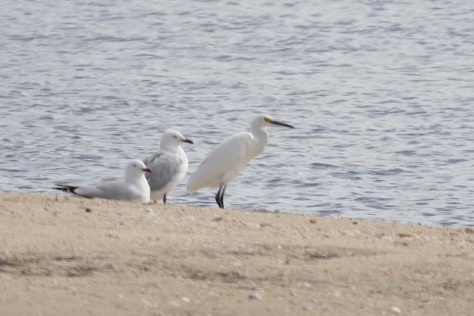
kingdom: Animalia
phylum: Chordata
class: Aves
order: Pelecaniformes
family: Ardeidae
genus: Egretta
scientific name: Egretta garzetta
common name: Little egret
